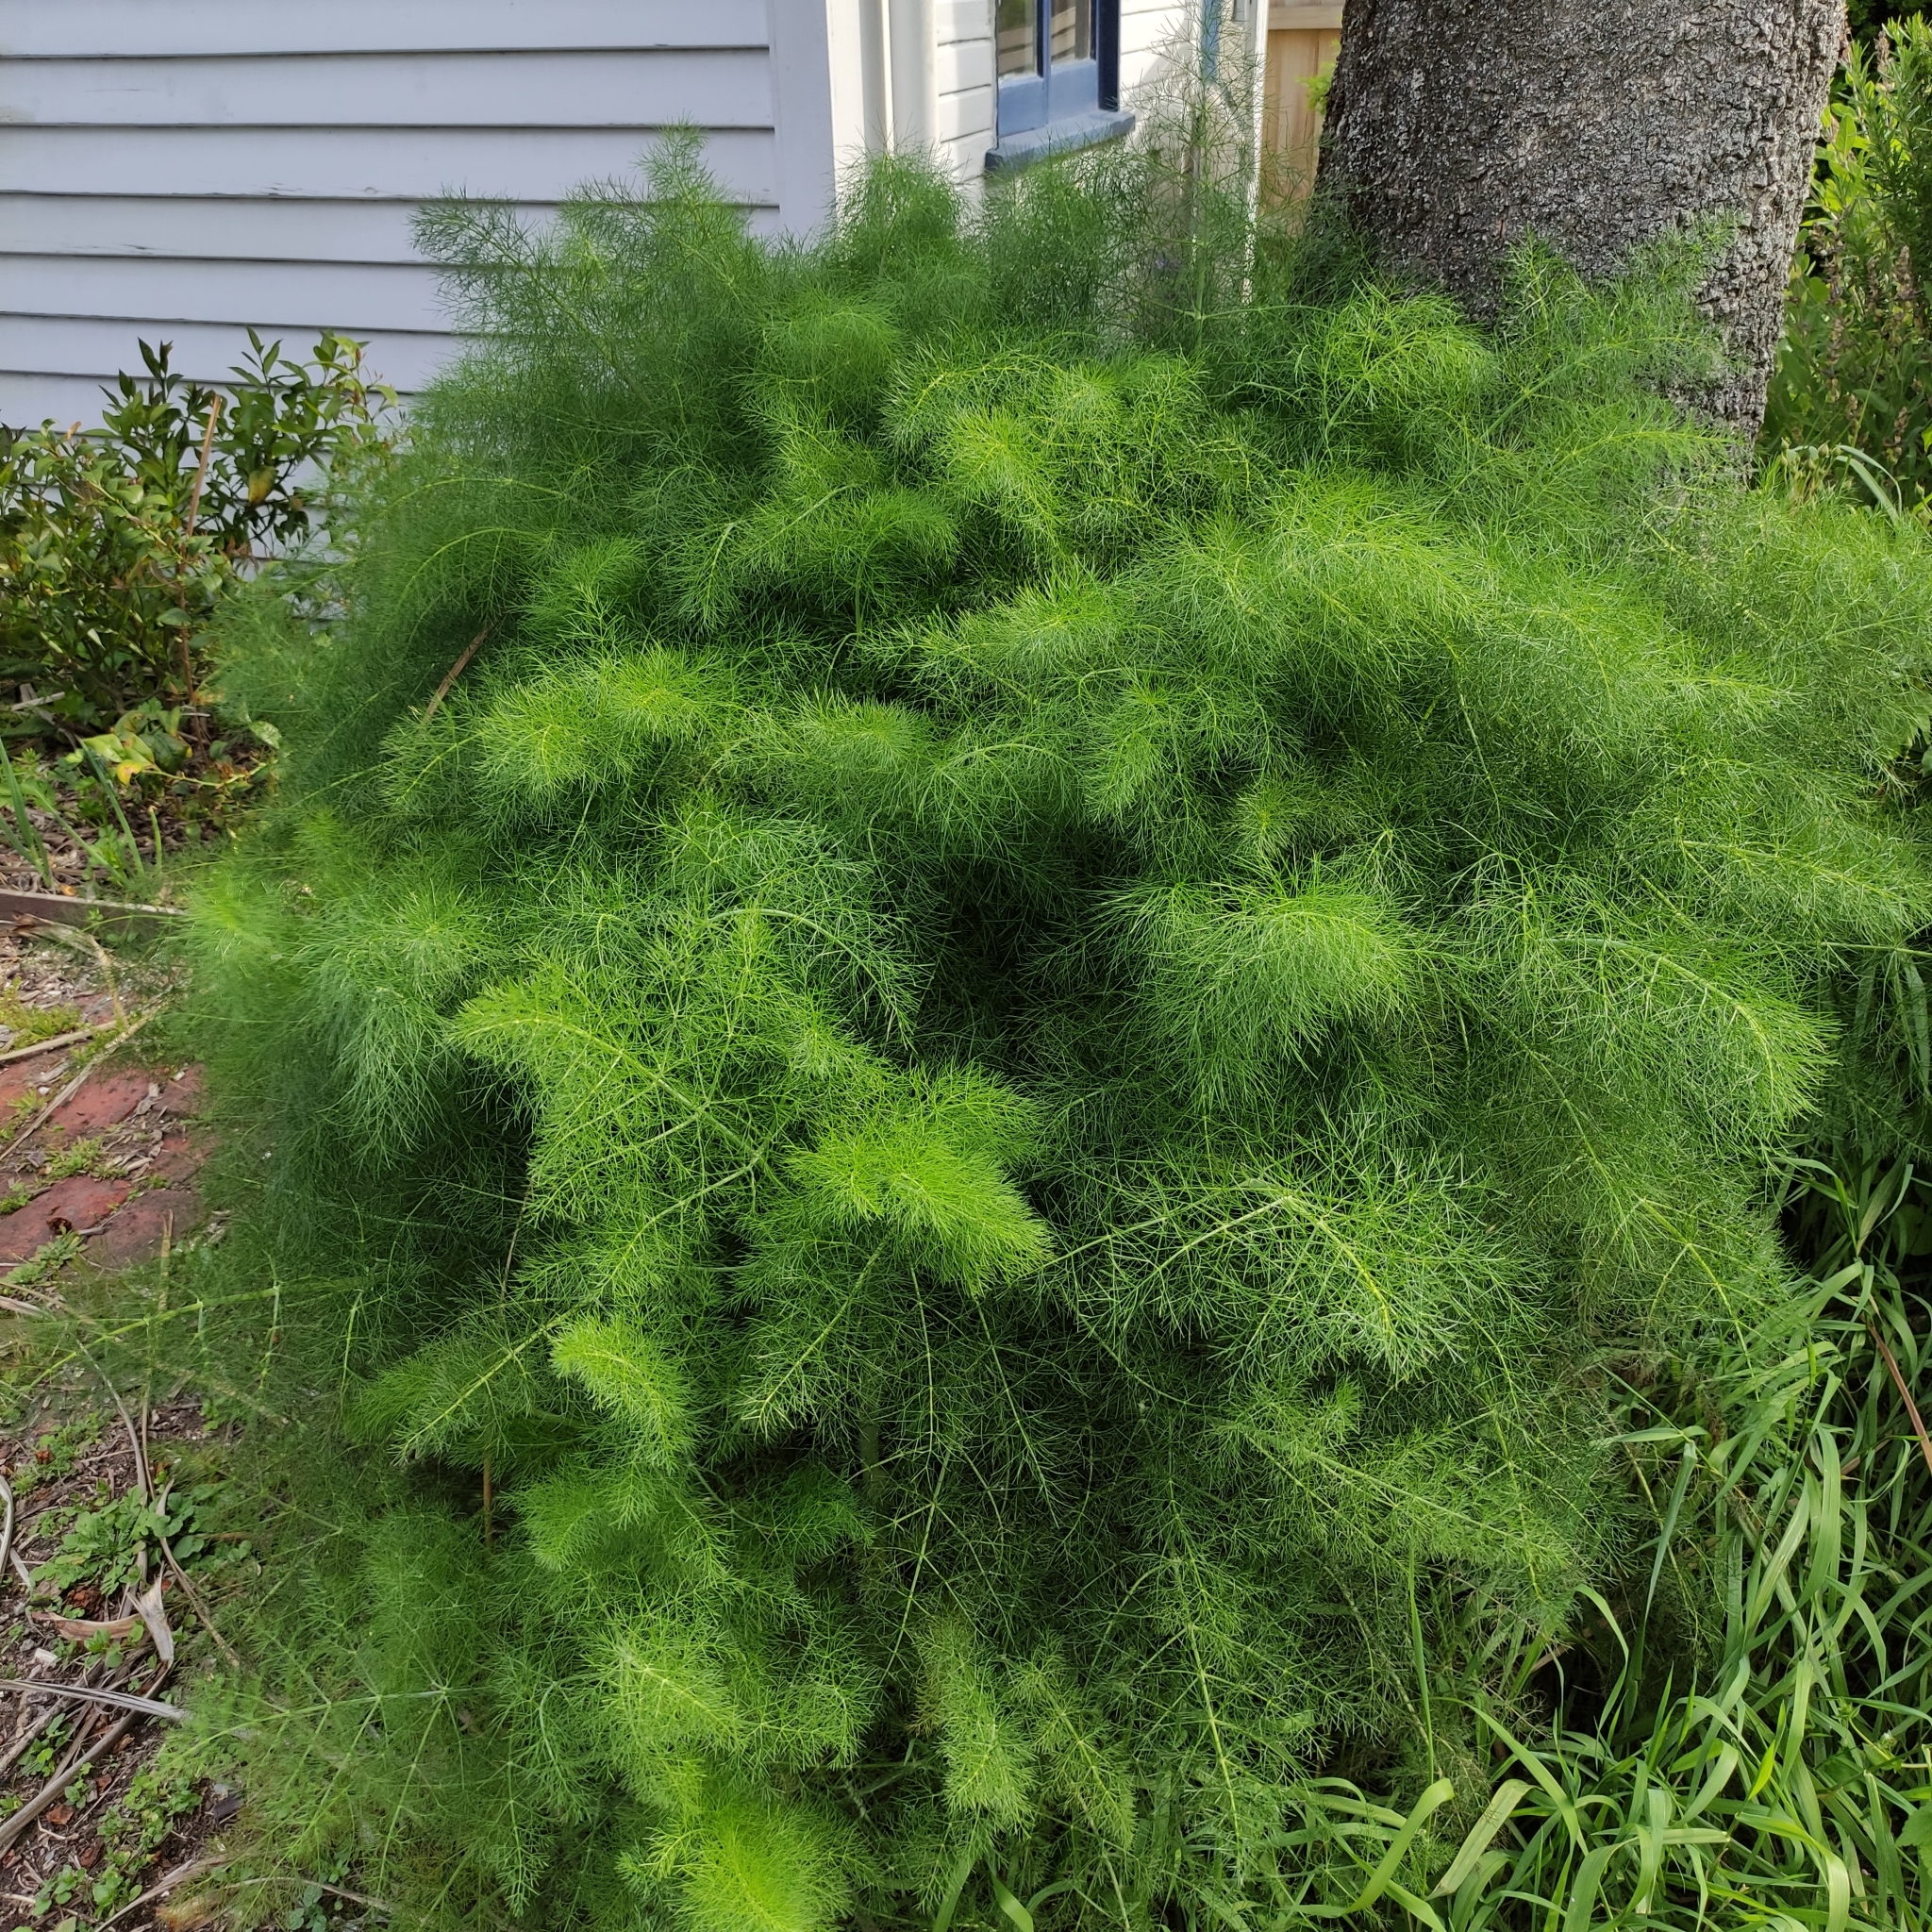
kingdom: Plantae
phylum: Tracheophyta
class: Magnoliopsida
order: Apiales
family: Apiaceae
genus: Foeniculum
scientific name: Foeniculum vulgare
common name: Fennel
